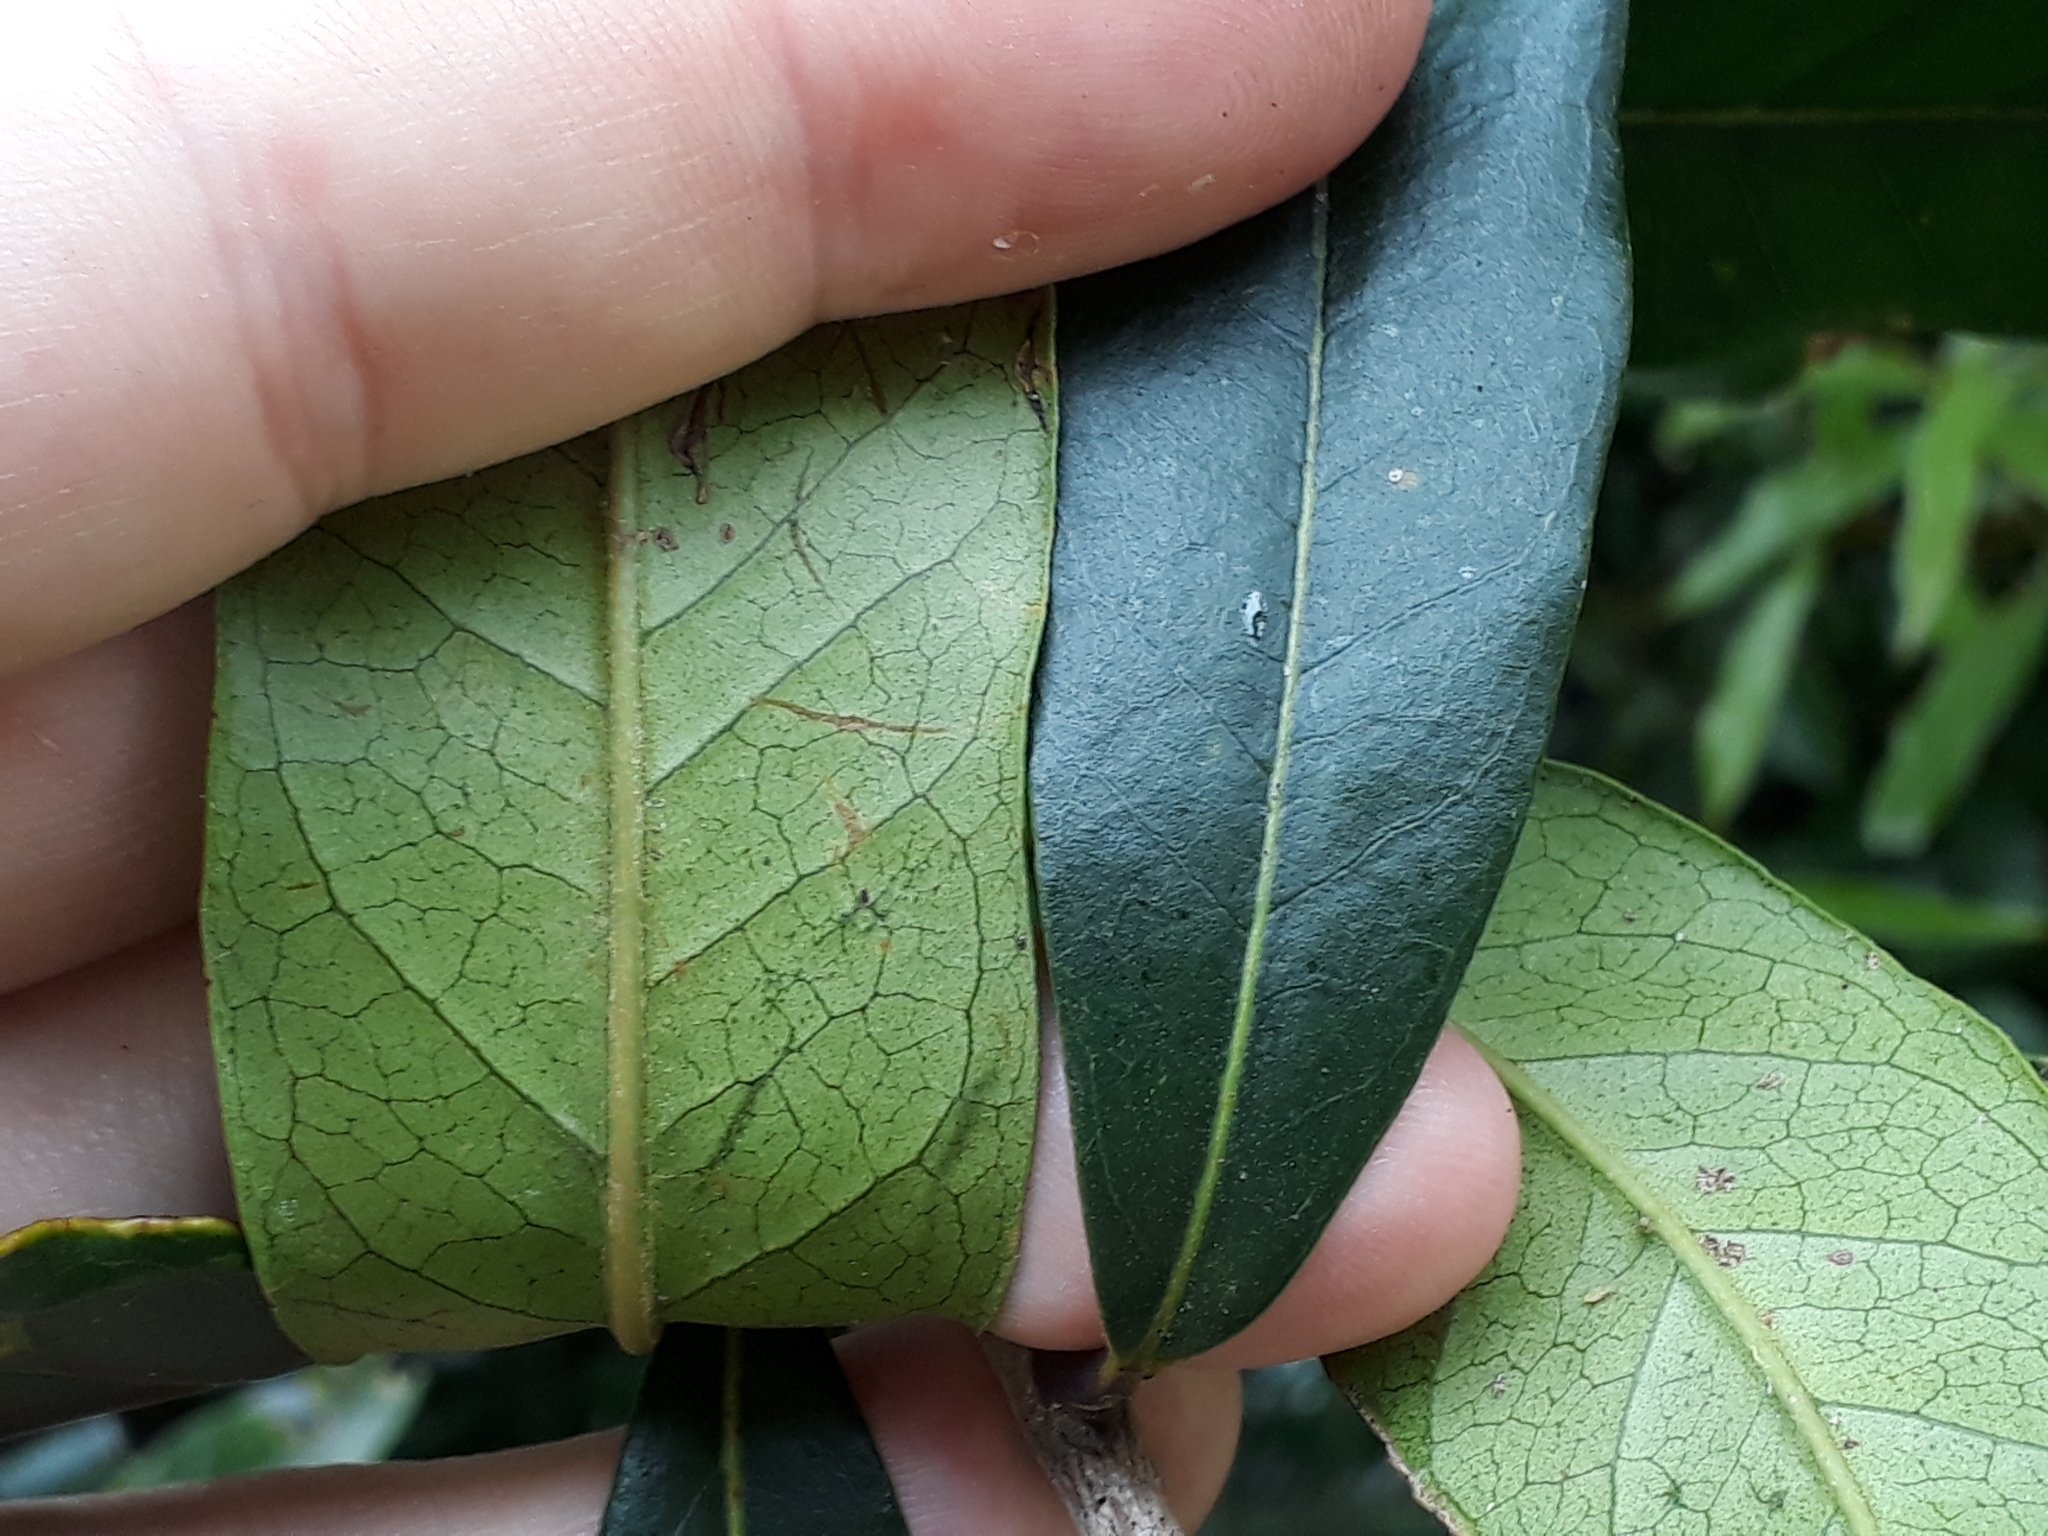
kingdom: Plantae
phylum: Tracheophyta
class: Magnoliopsida
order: Lamiales
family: Oleaceae
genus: Nestegis
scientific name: Nestegis cunninghamii
